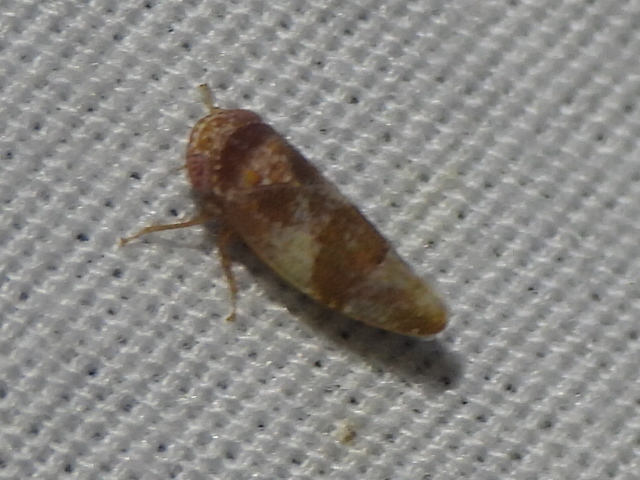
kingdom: Animalia
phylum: Arthropoda
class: Insecta
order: Hemiptera
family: Cicadellidae
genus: Norvellina
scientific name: Norvellina helenae
